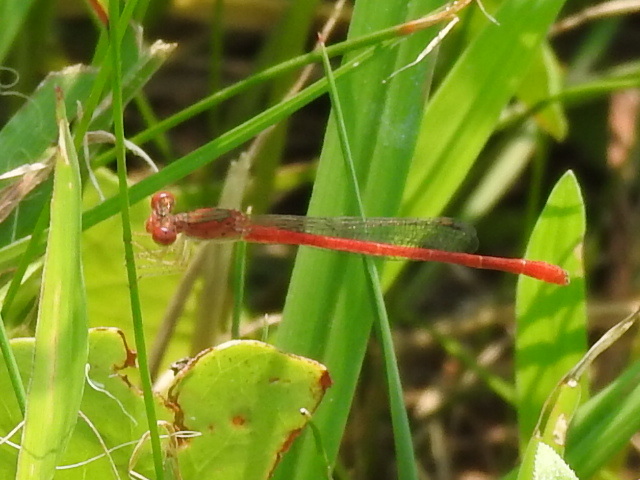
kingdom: Animalia
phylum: Arthropoda
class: Insecta
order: Odonata
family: Coenagrionidae
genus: Telebasis
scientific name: Telebasis salva
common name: Desert firetail
